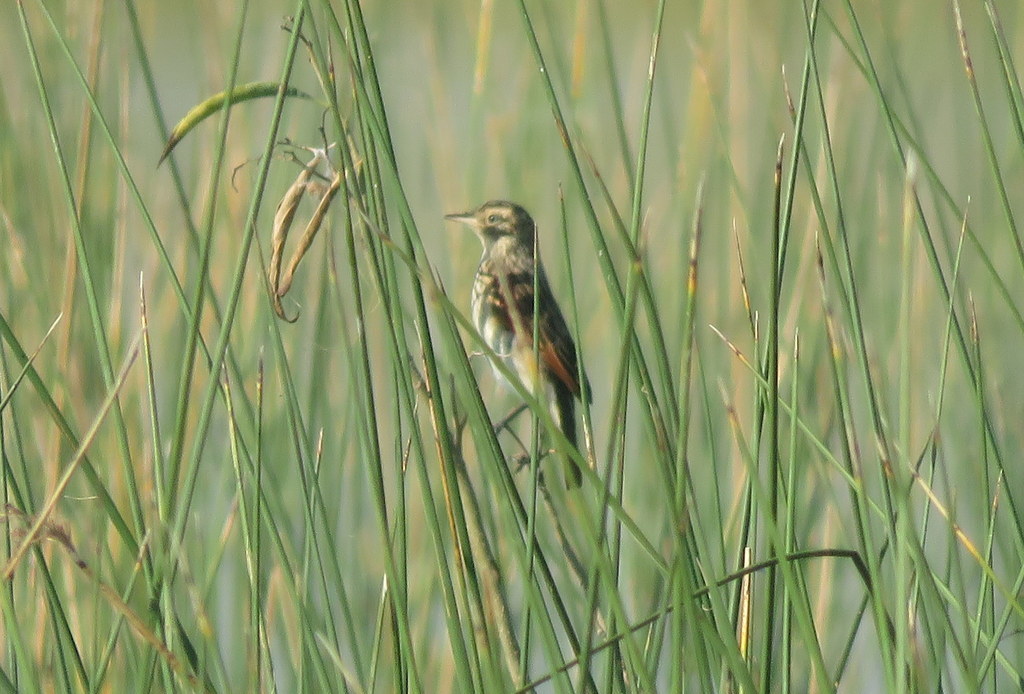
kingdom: Animalia
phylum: Chordata
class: Aves
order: Passeriformes
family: Tyrannidae
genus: Hymenops
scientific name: Hymenops perspicillatus
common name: Spectacled tyrant
